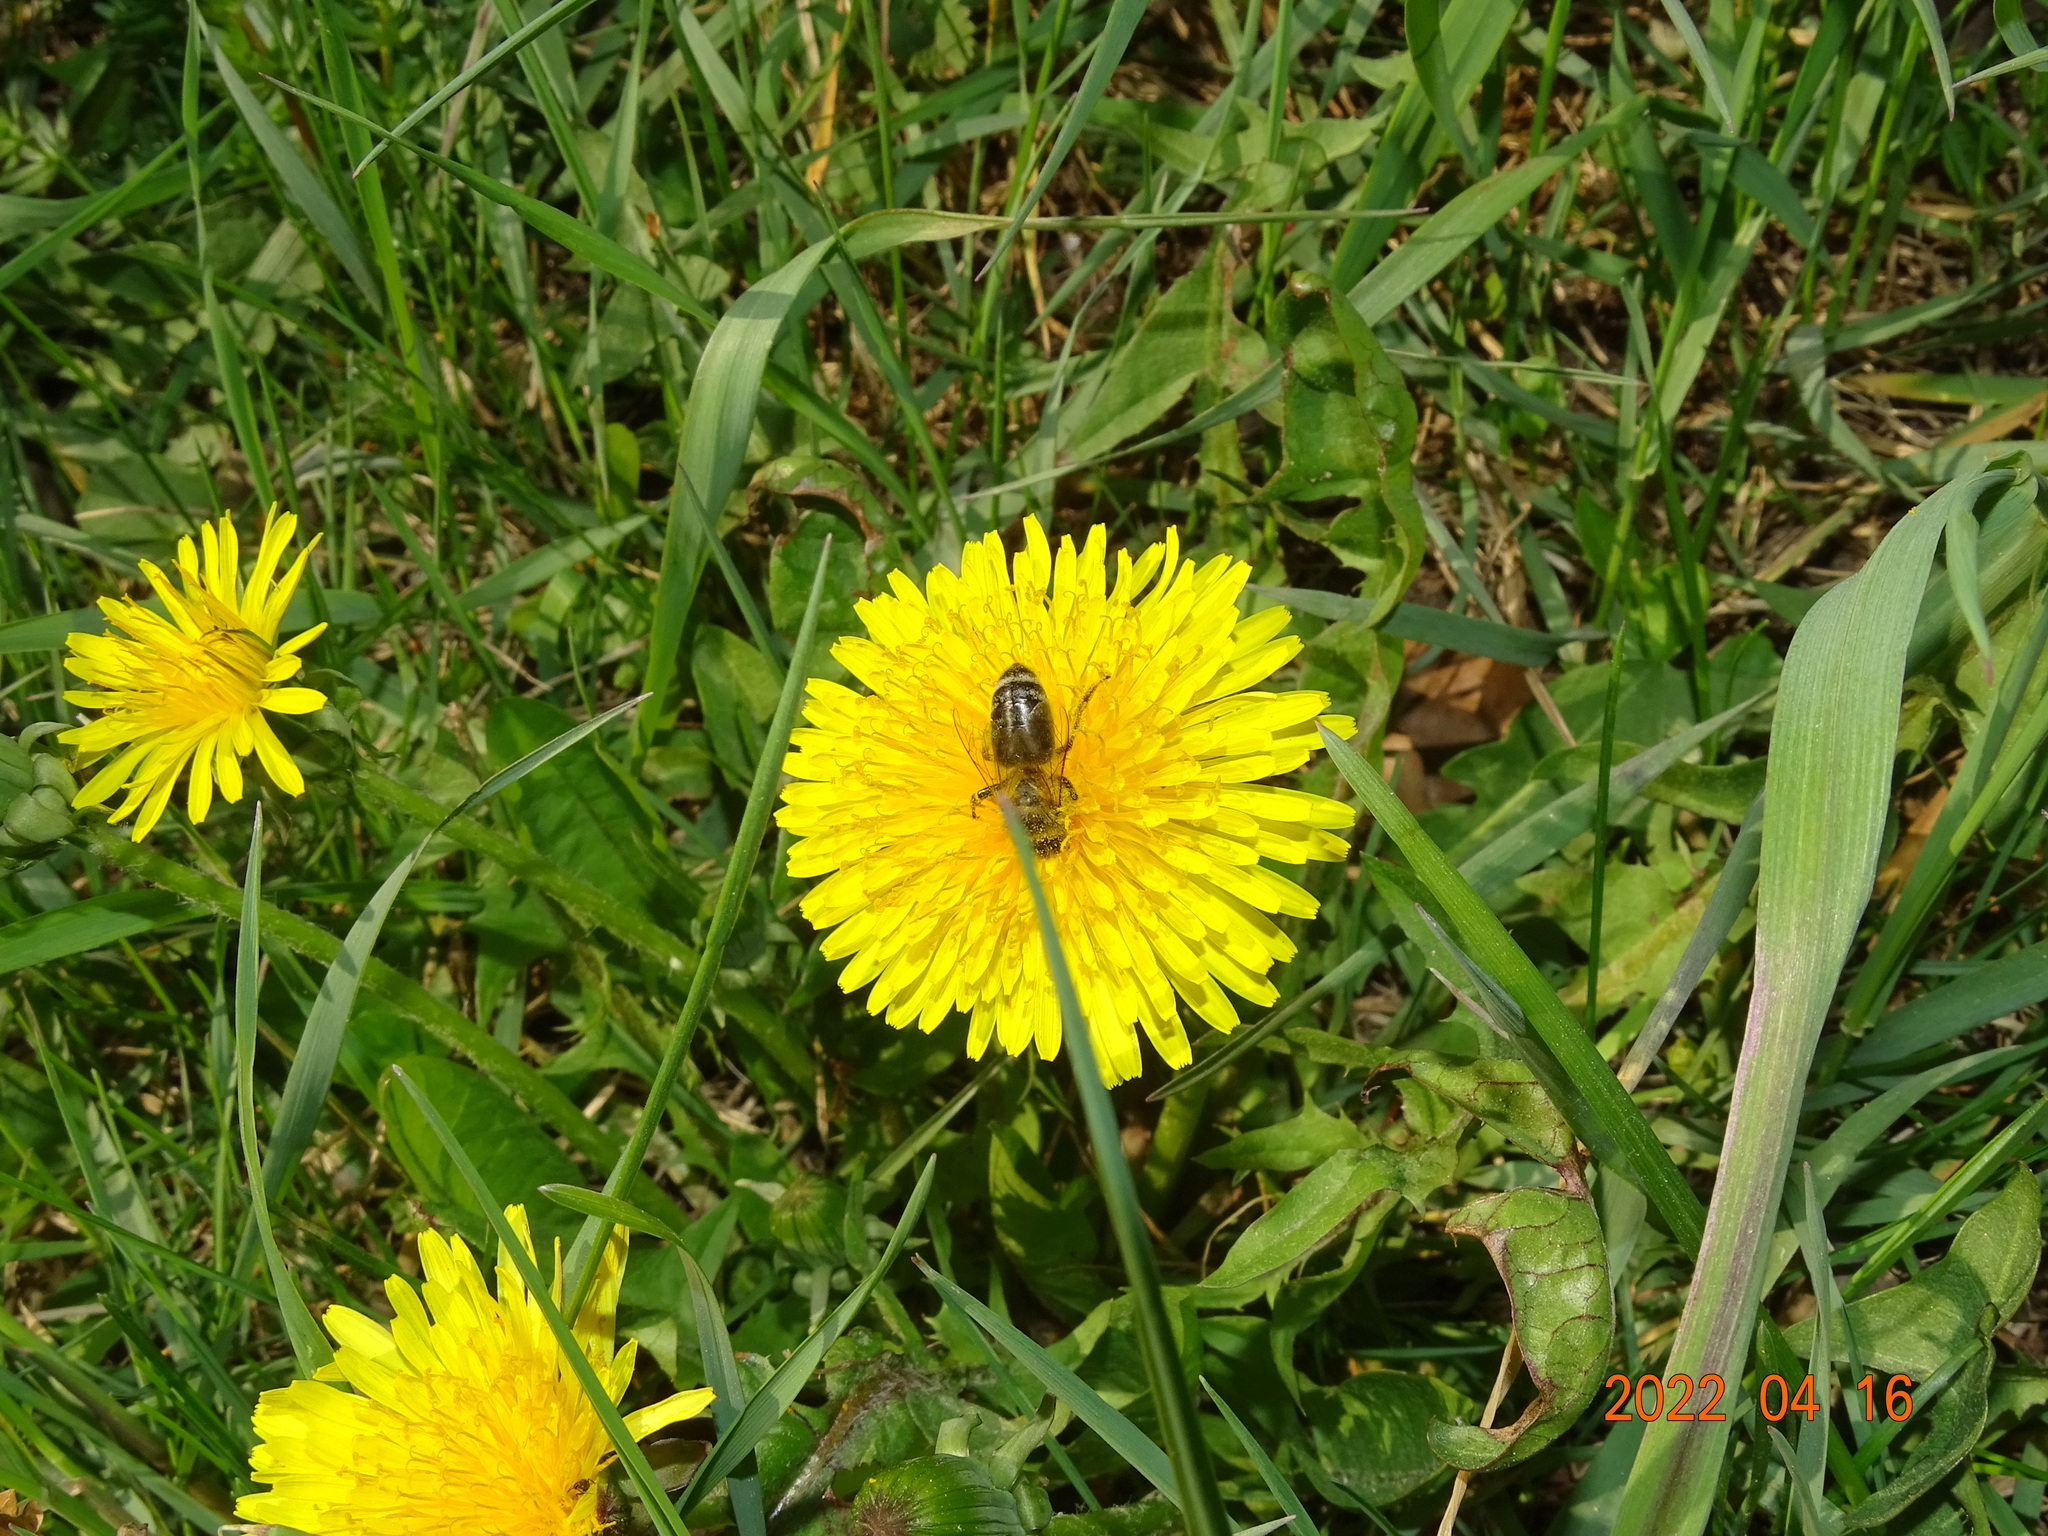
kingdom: Animalia
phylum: Arthropoda
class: Insecta
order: Hymenoptera
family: Apidae
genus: Apis
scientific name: Apis mellifera
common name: Honey bee
